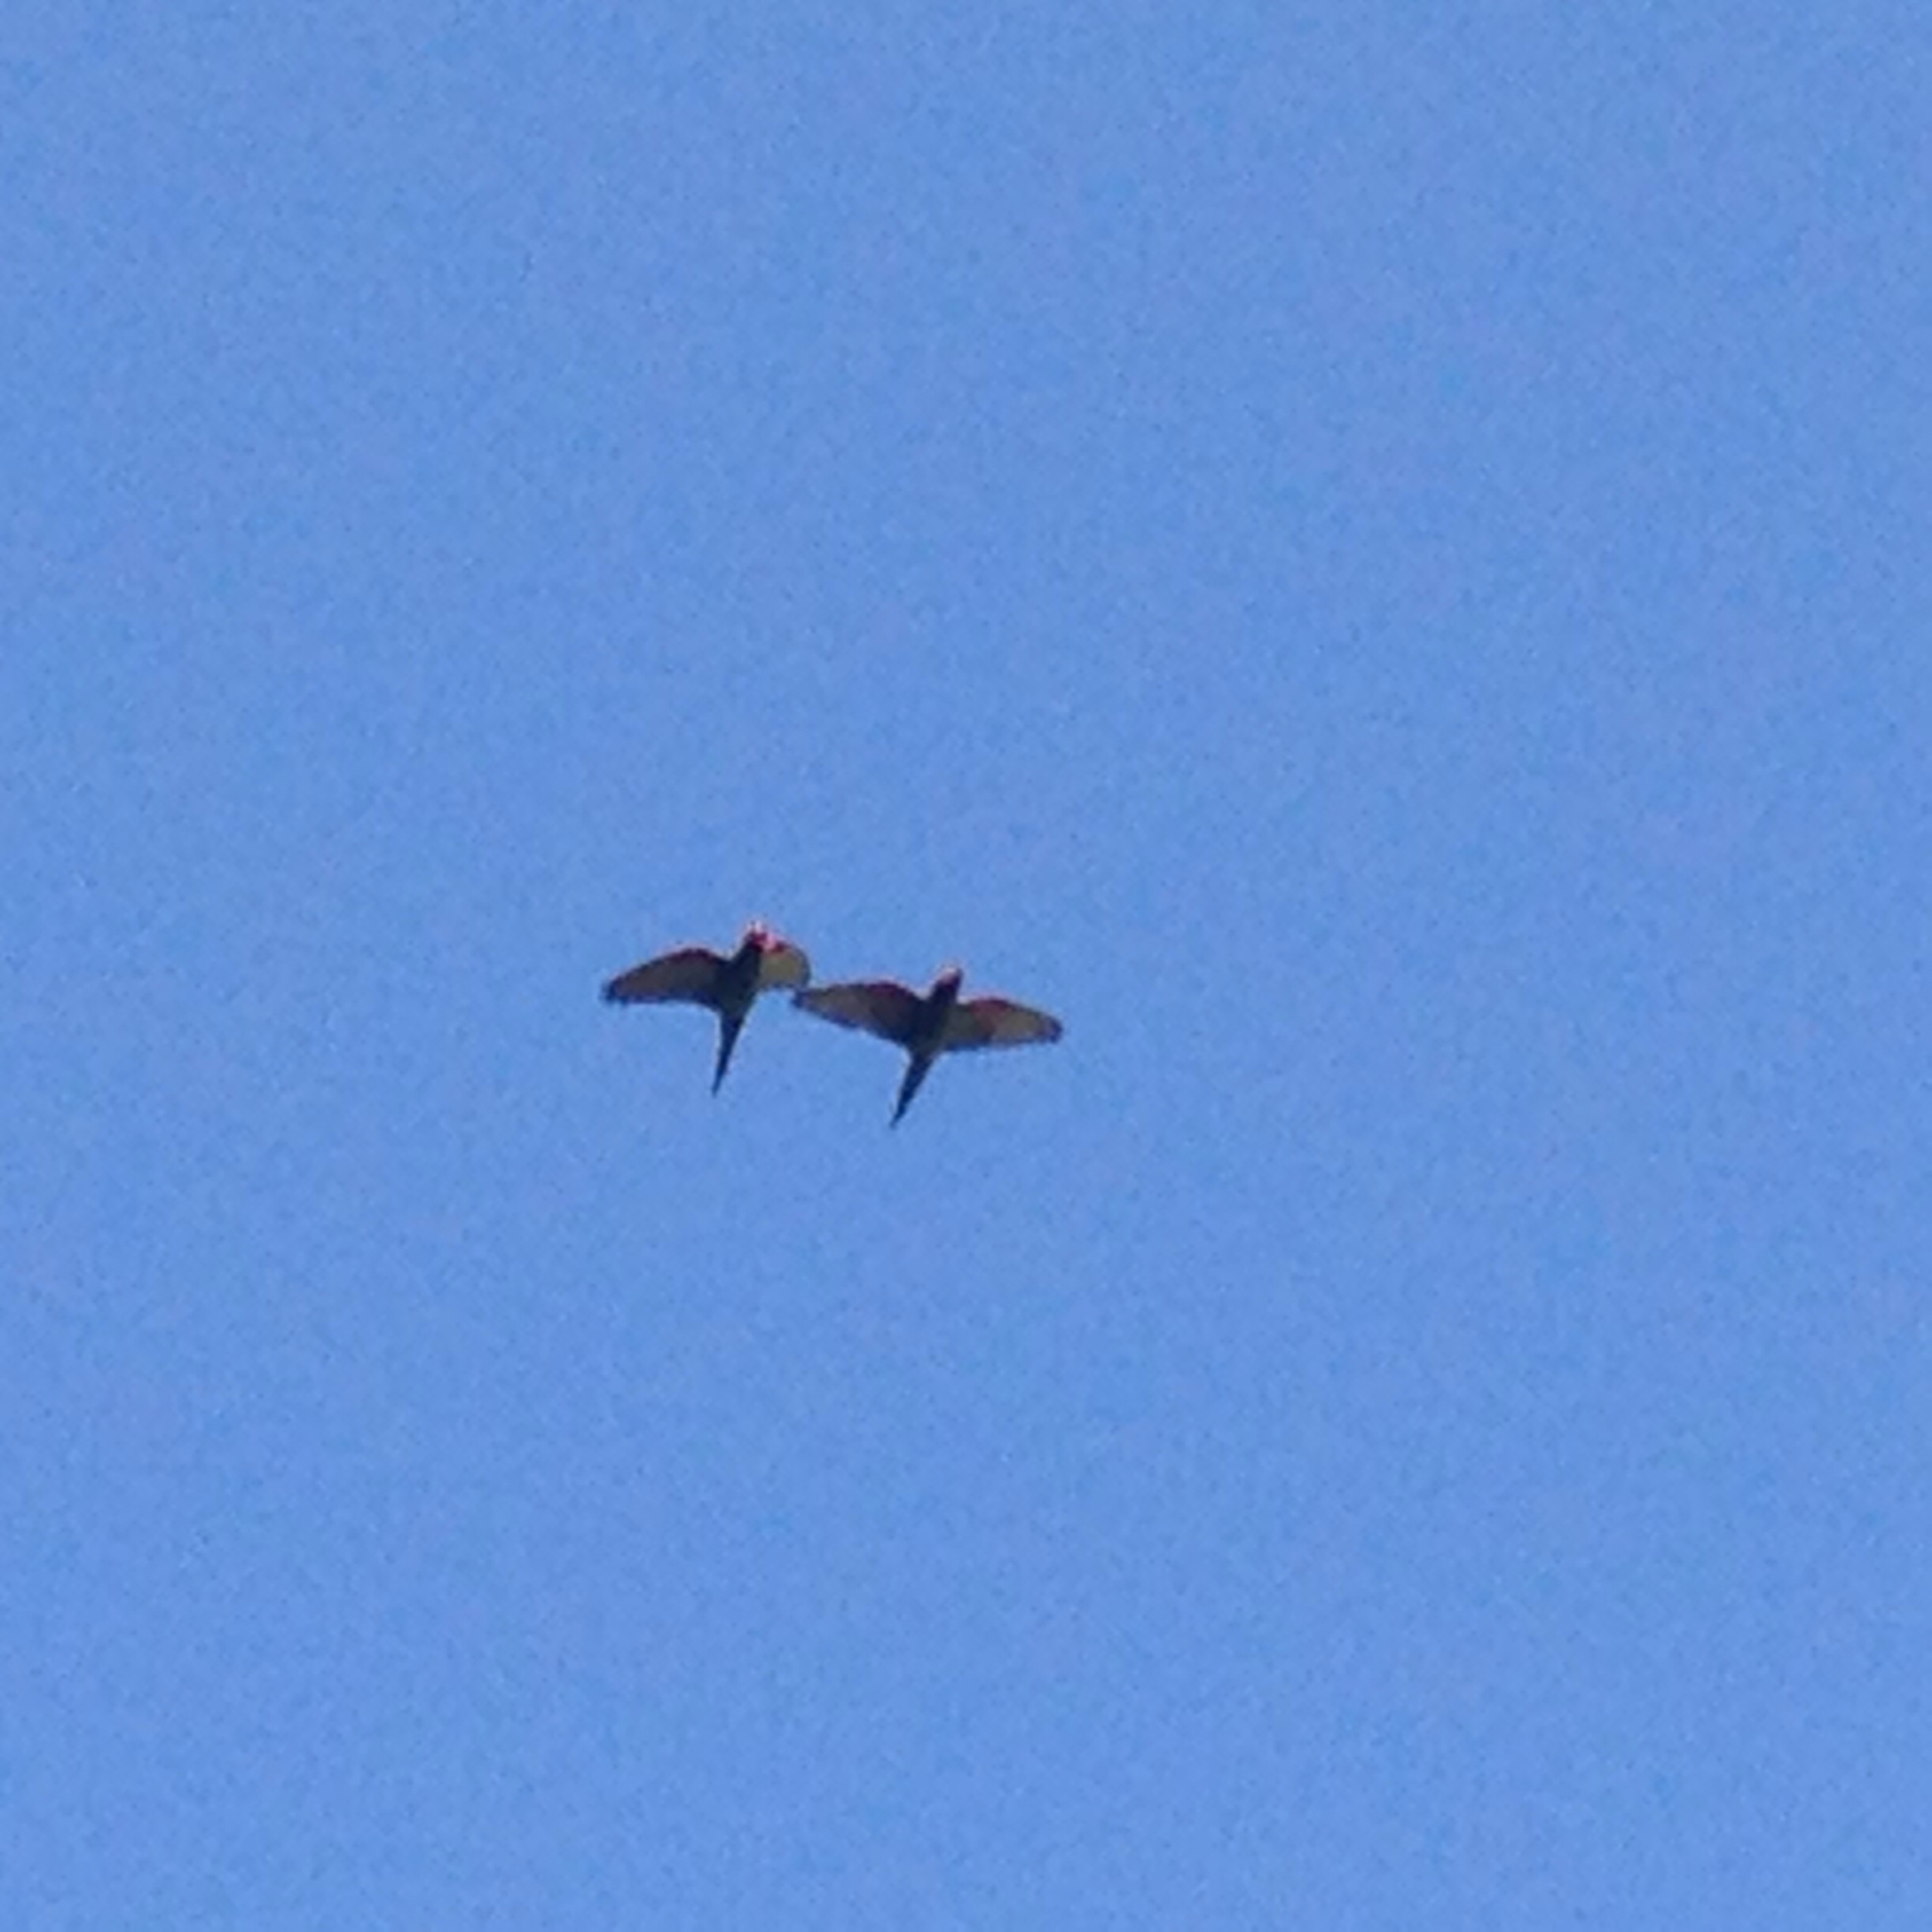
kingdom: Animalia
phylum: Chordata
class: Aves
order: Psittaciformes
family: Psittacidae
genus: Aratinga
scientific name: Aratinga erythrogenys
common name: Red-masked parakeet
